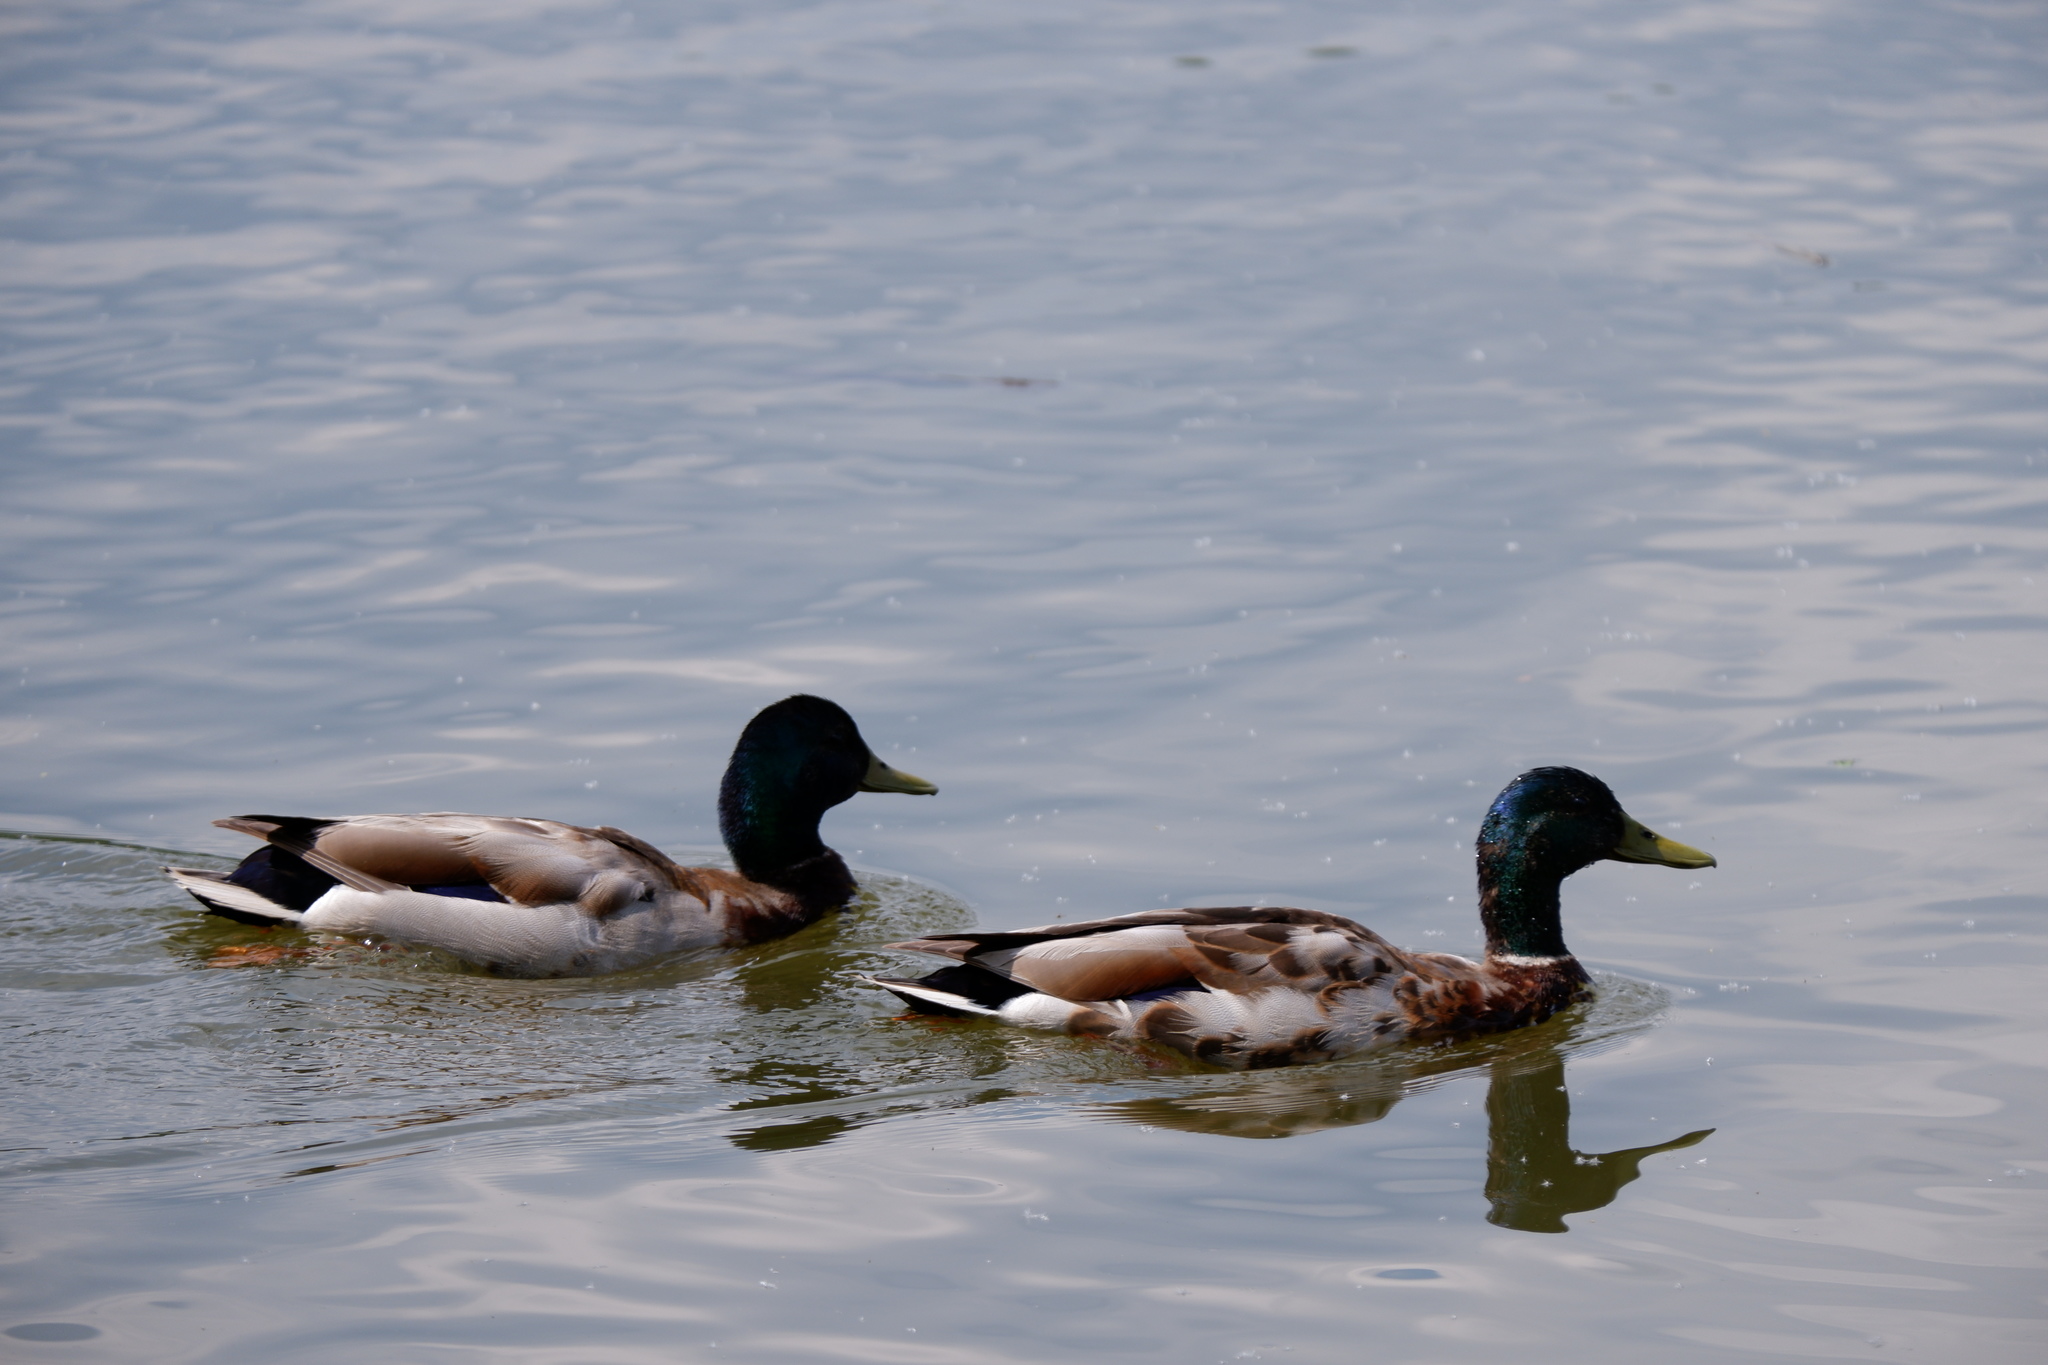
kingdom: Animalia
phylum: Chordata
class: Aves
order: Anseriformes
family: Anatidae
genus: Anas
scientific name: Anas platyrhynchos
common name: Mallard
